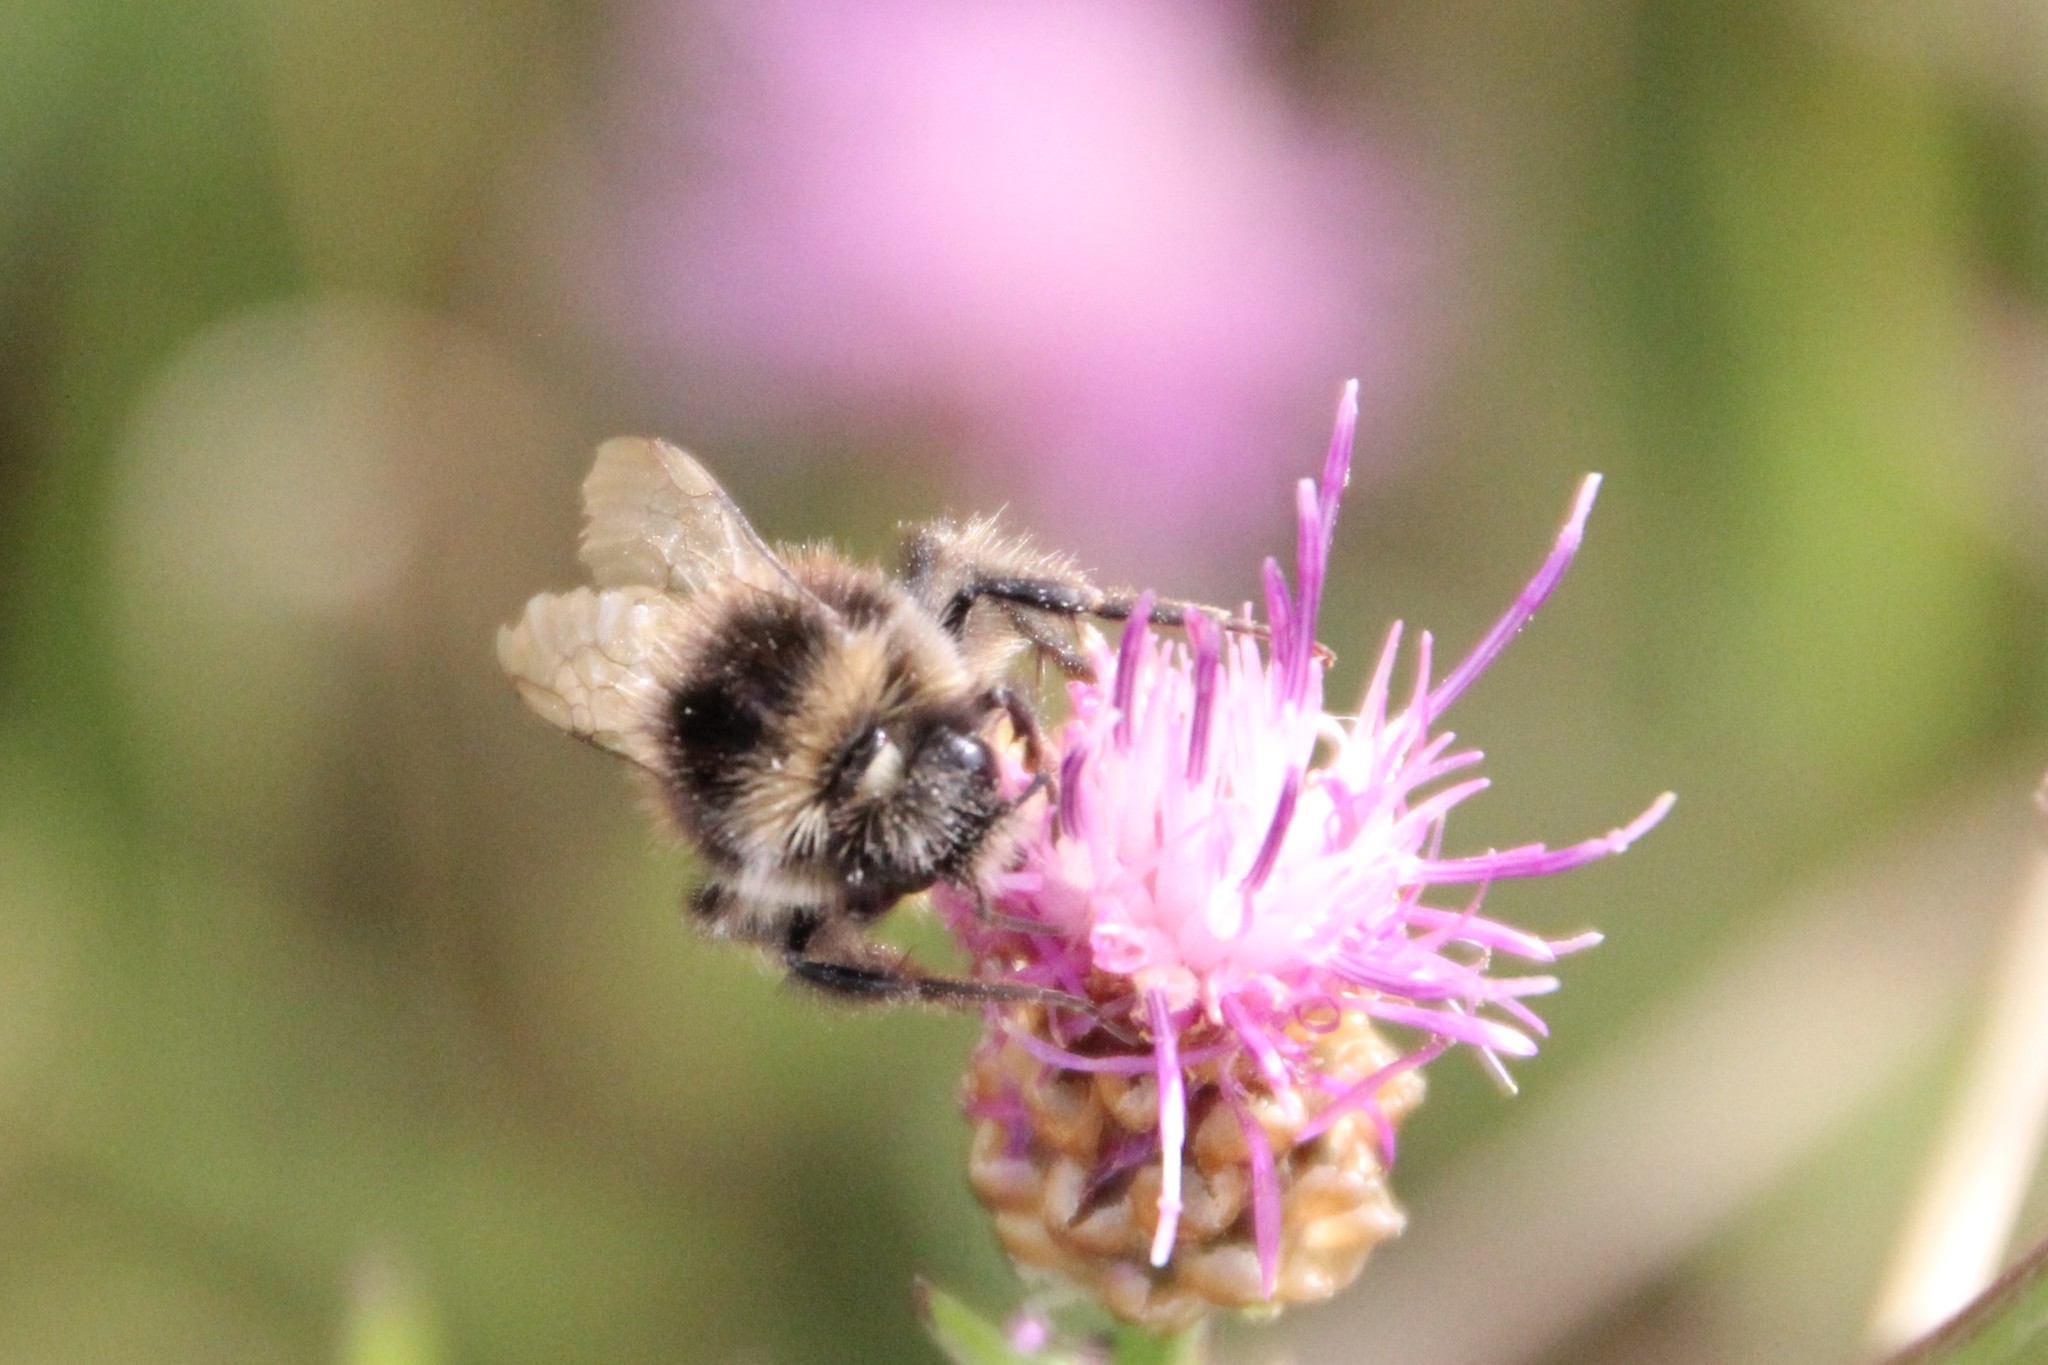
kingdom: Animalia
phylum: Arthropoda
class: Insecta
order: Hymenoptera
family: Apidae
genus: Bombus
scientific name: Bombus lapidarius
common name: Large red-tailed humble-bee
